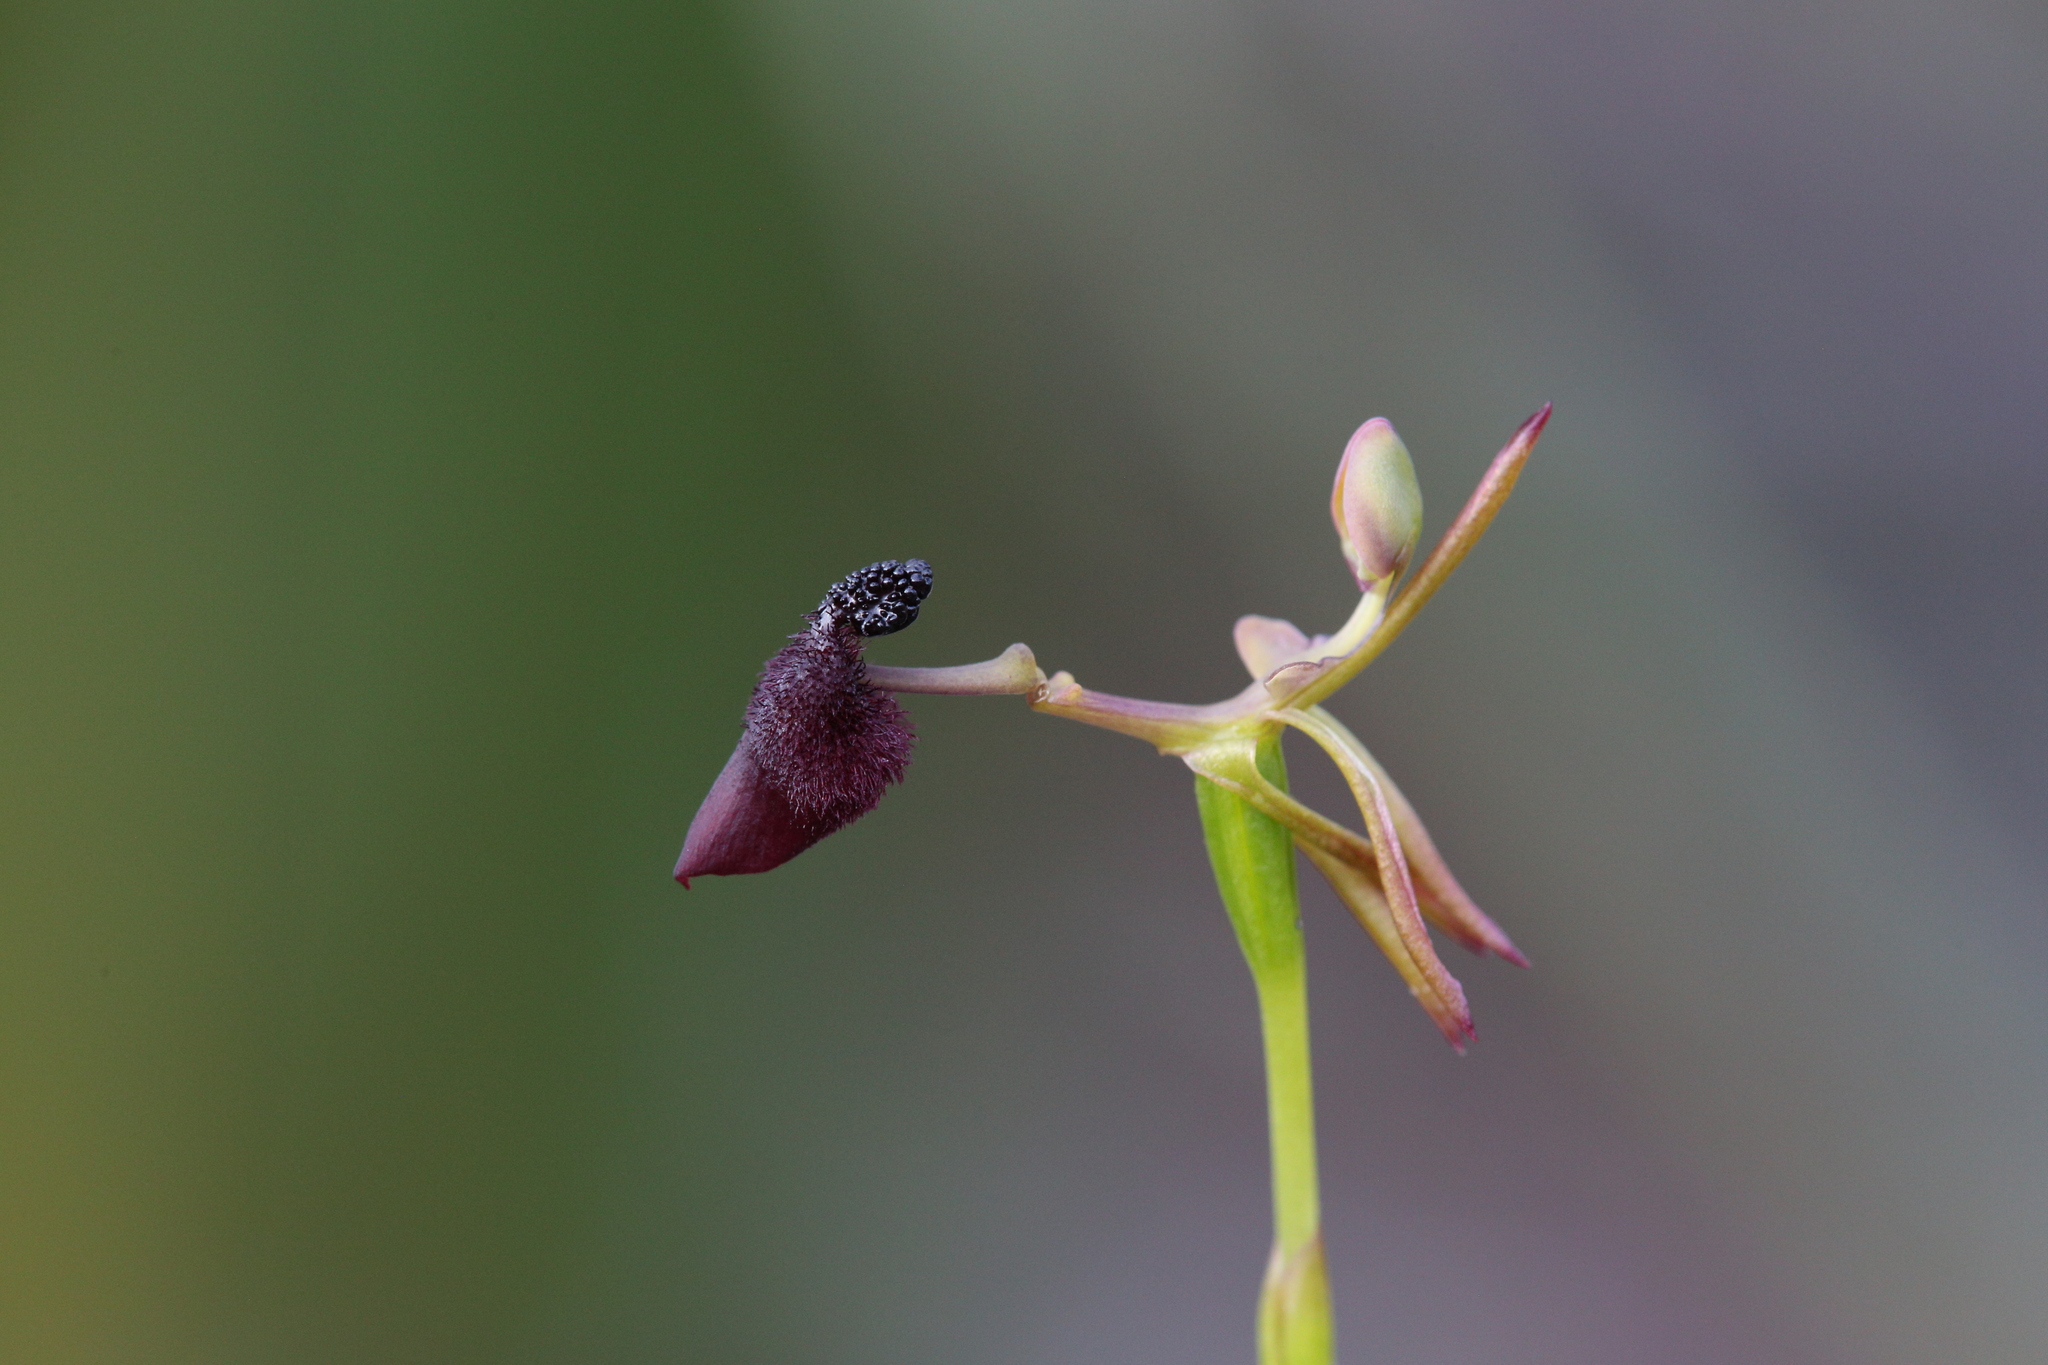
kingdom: Plantae
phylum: Tracheophyta
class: Liliopsida
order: Asparagales
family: Orchidaceae
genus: Drakaea
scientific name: Drakaea glyptodon
